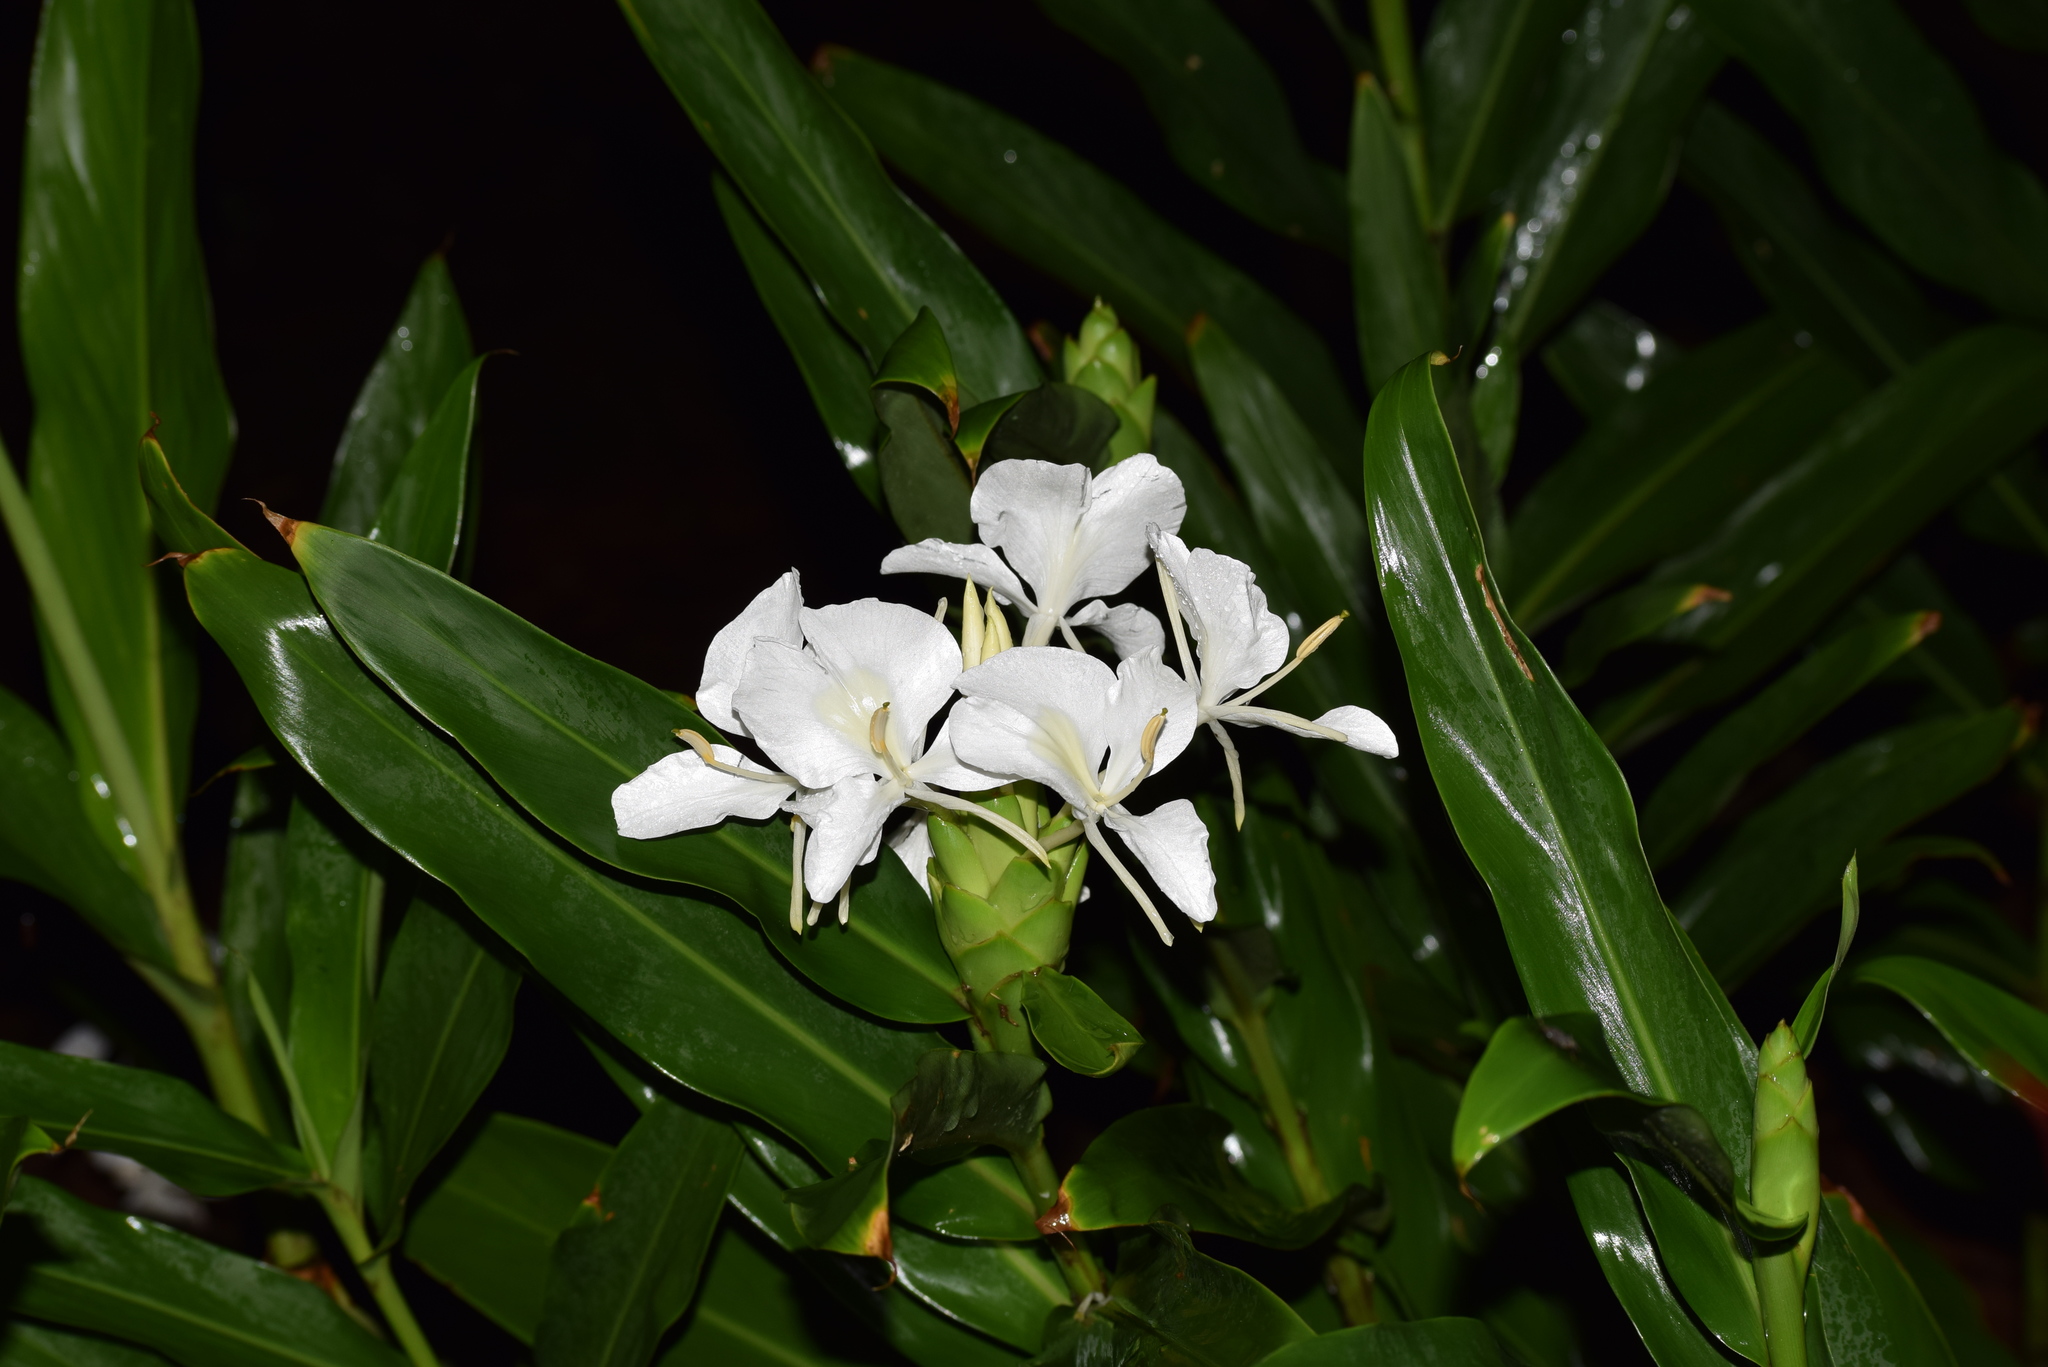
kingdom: Plantae
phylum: Tracheophyta
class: Liliopsida
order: Zingiberales
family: Zingiberaceae
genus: Hedychium
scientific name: Hedychium coronarium
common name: White garland-lily
